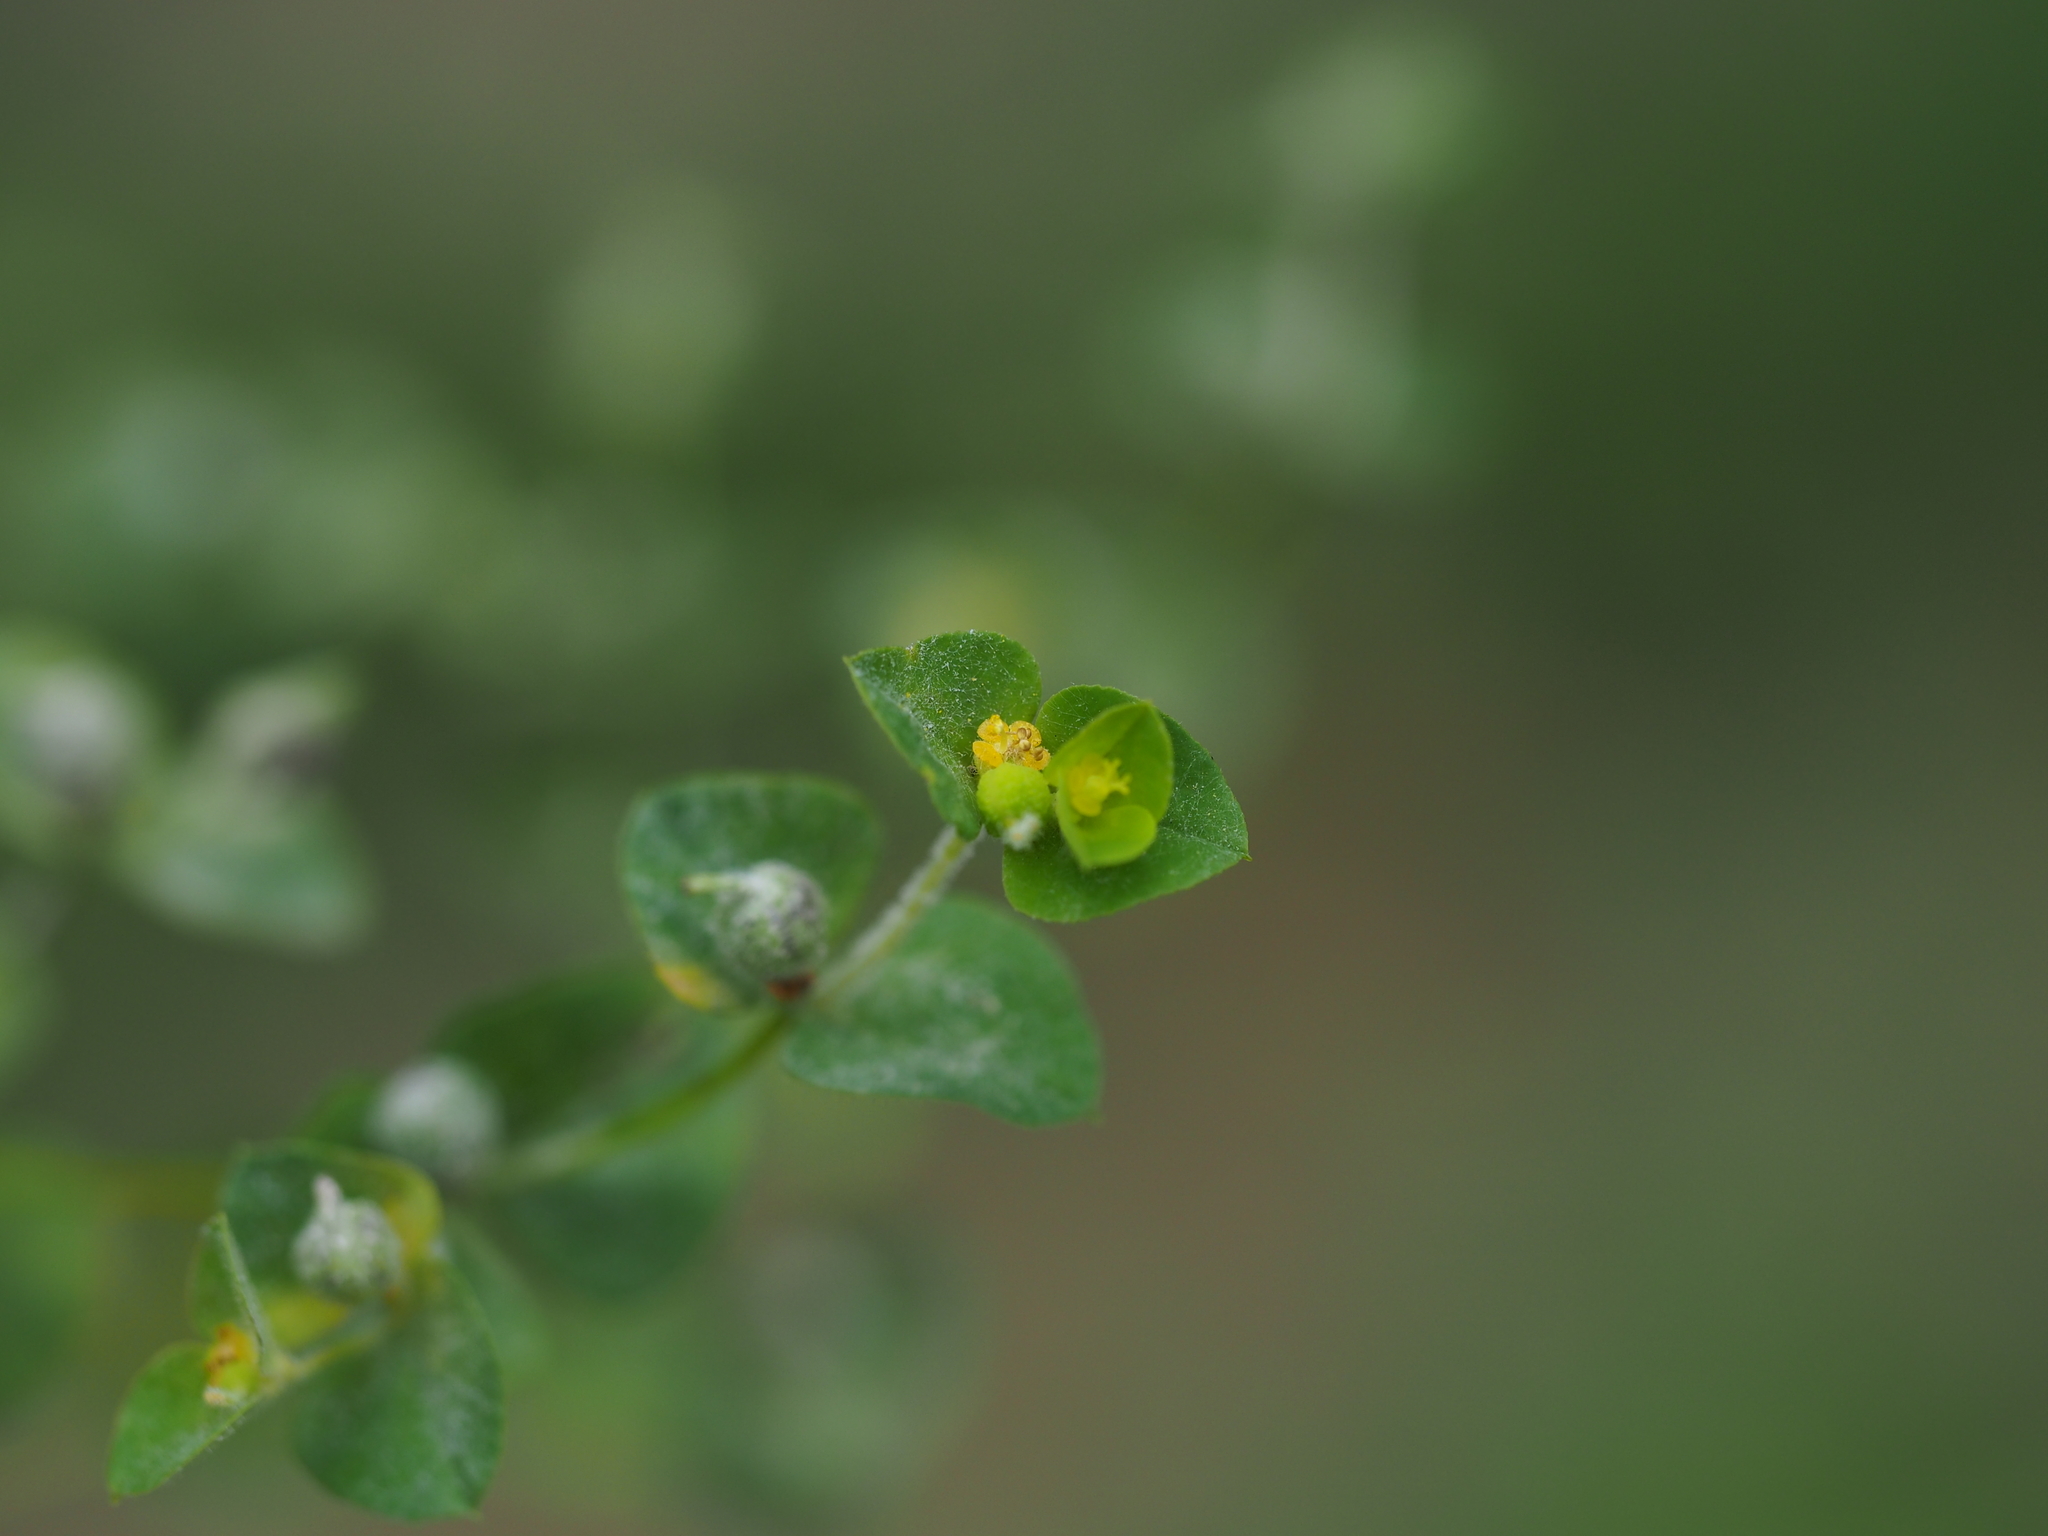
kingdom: Plantae
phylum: Tracheophyta
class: Magnoliopsida
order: Malpighiales
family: Euphorbiaceae
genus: Euphorbia
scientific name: Euphorbia stricta
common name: Upright spurge
